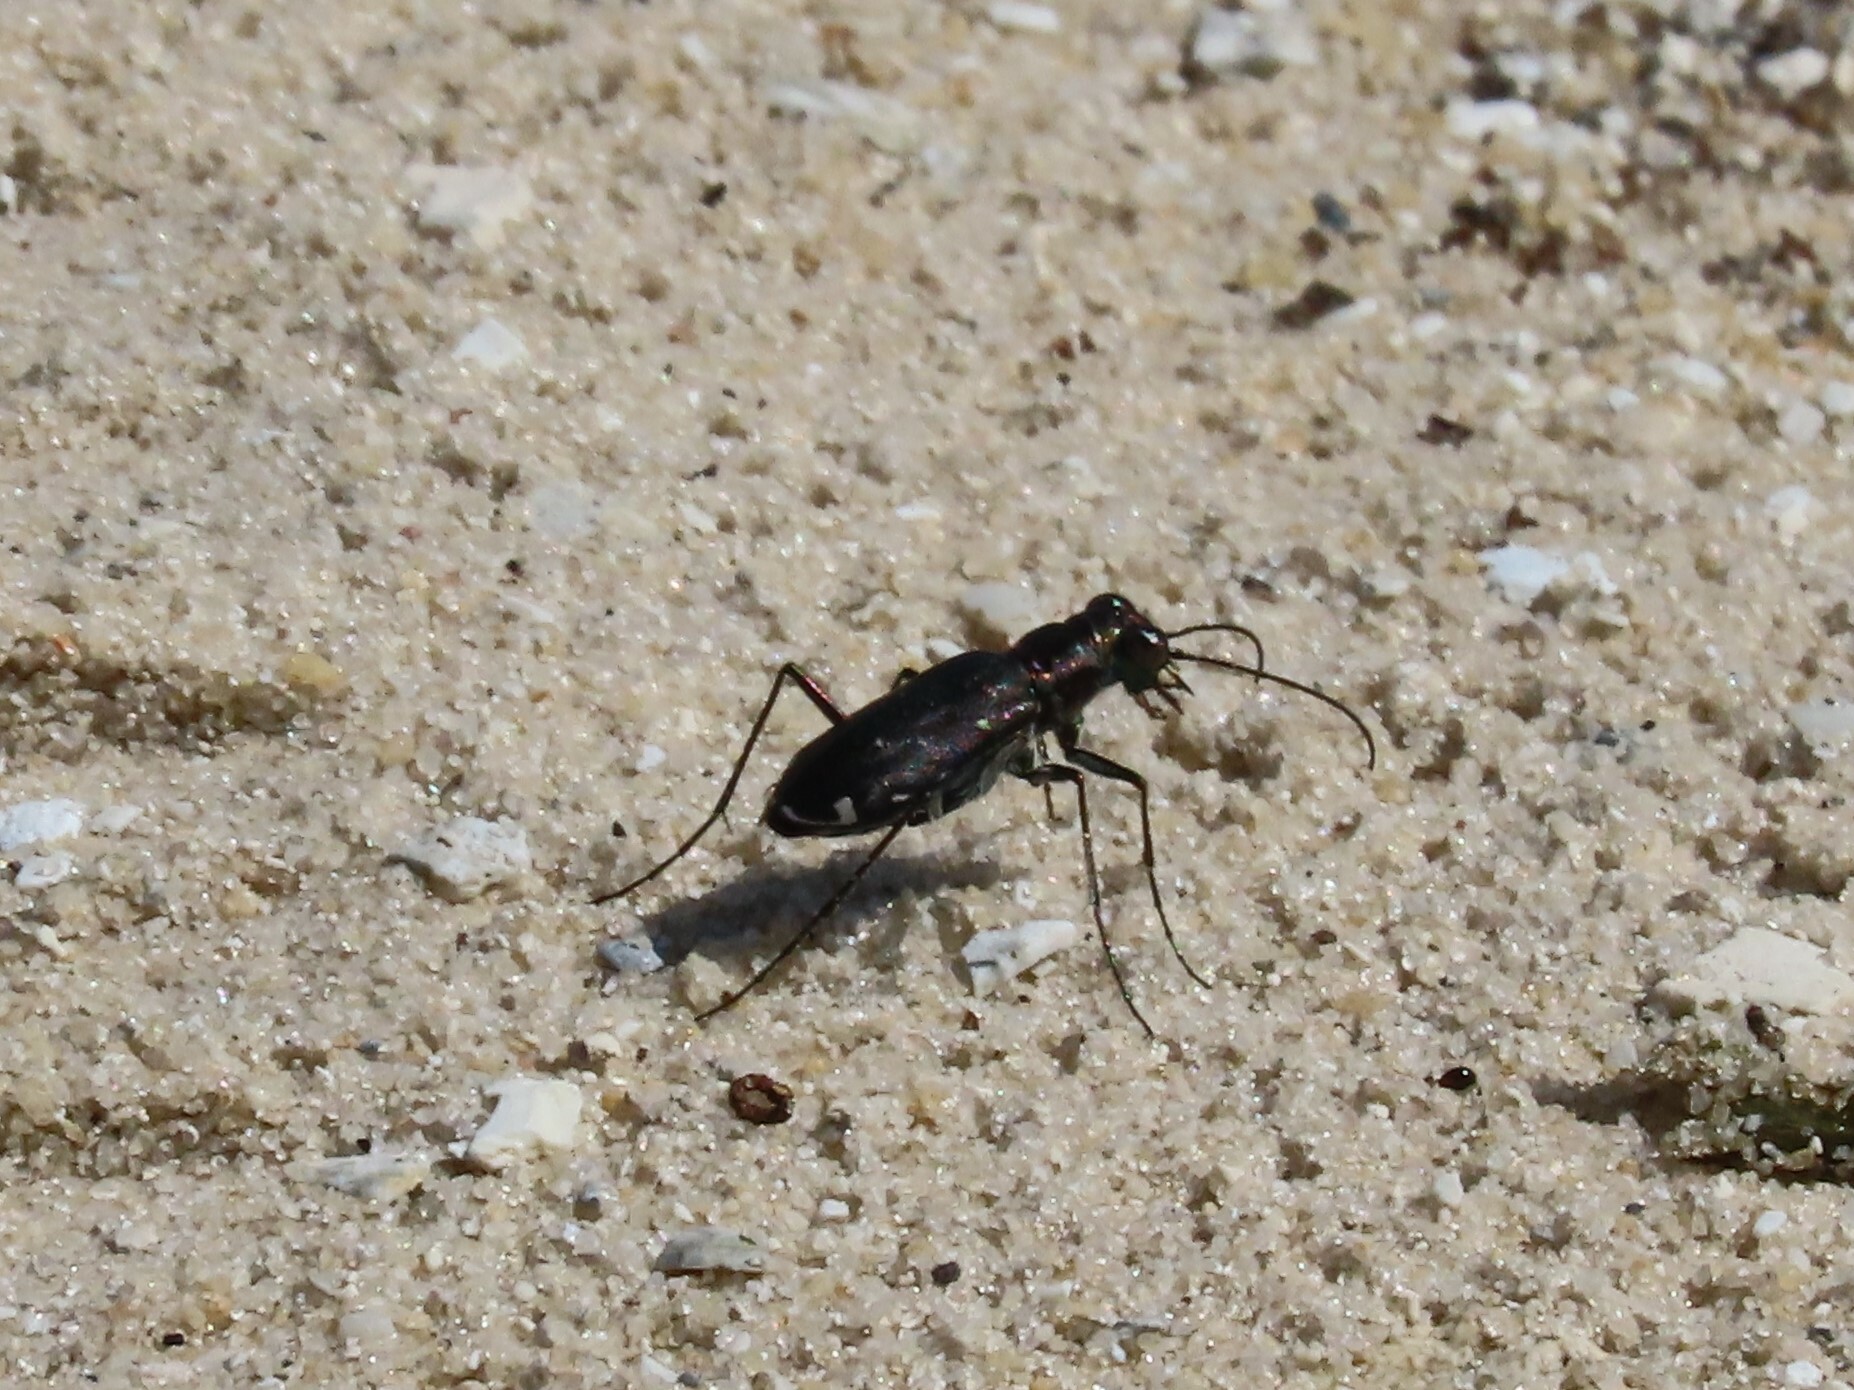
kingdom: Animalia
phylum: Arthropoda
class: Insecta
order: Coleoptera
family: Carabidae
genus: Cicindela
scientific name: Cicindela punctulata
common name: Punctured tiger beetle
